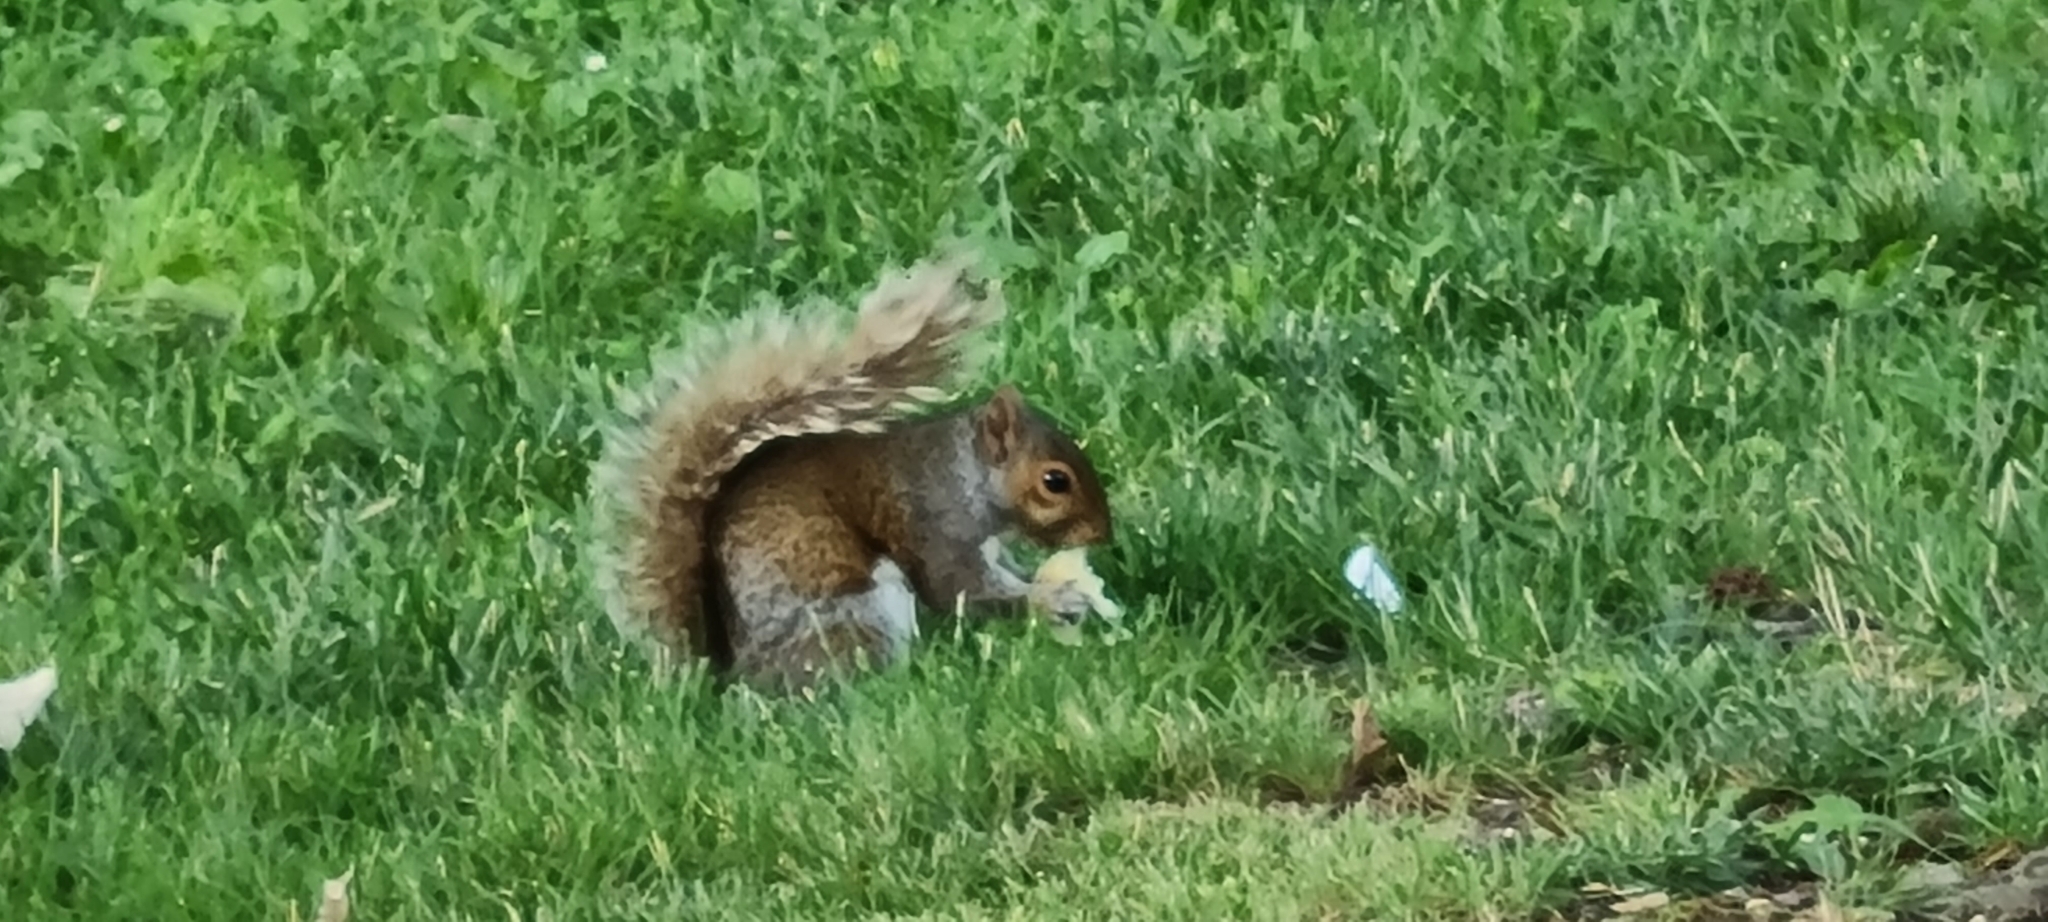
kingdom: Animalia
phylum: Chordata
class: Mammalia
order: Rodentia
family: Sciuridae
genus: Sciurus
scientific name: Sciurus carolinensis
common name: Eastern gray squirrel
